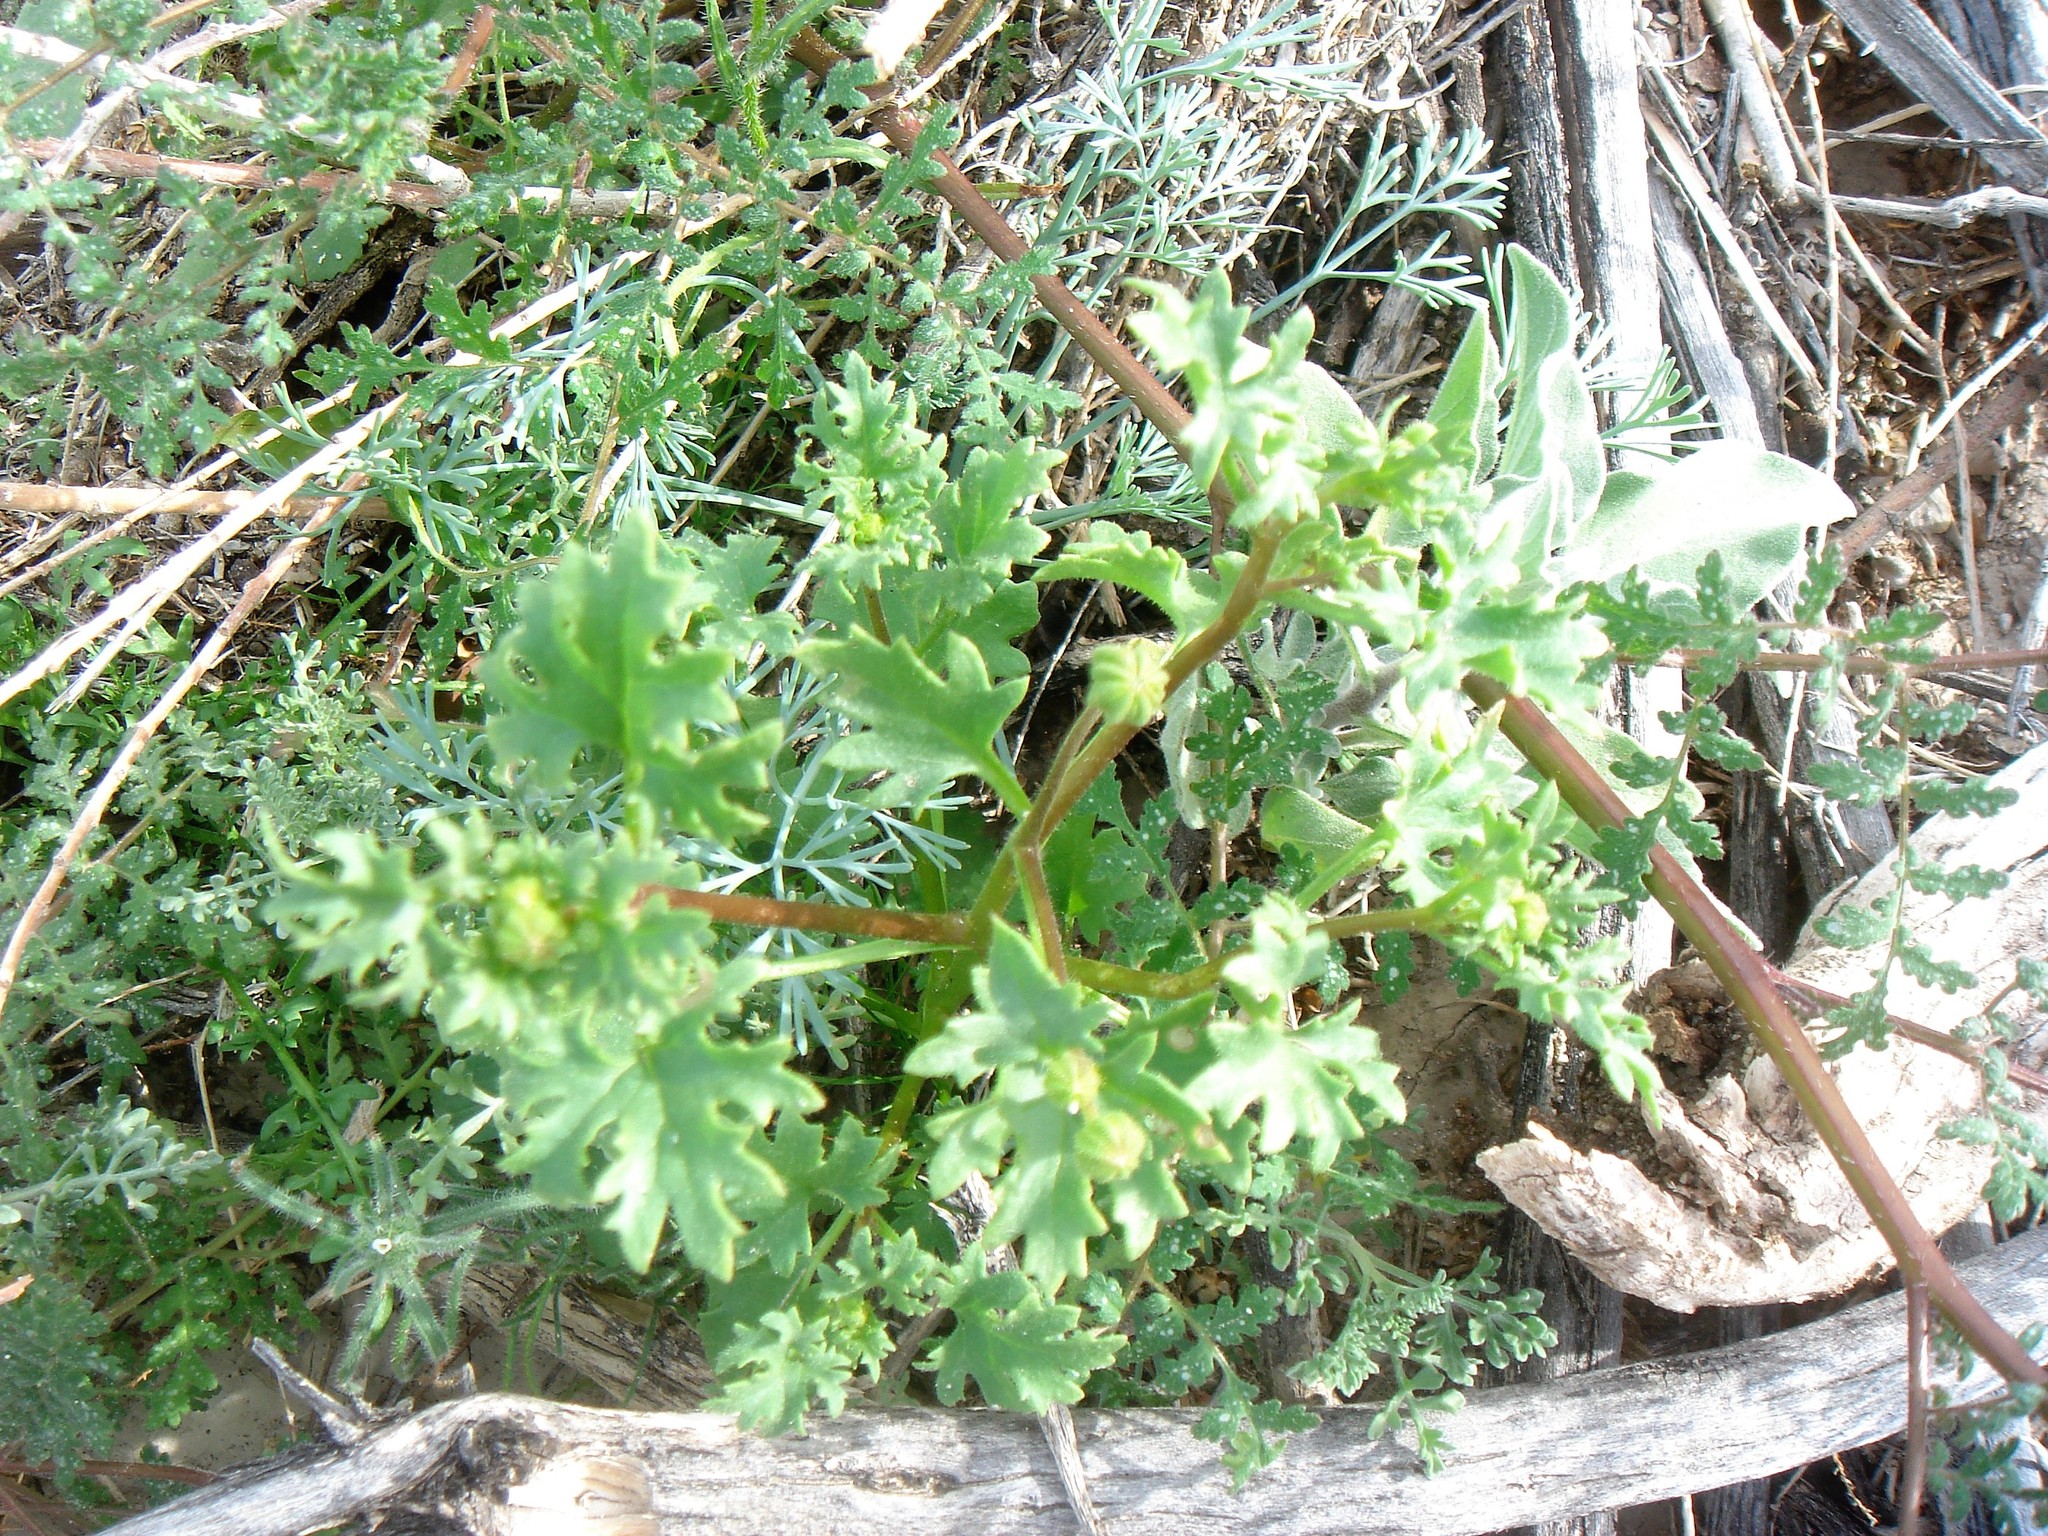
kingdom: Plantae
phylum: Tracheophyta
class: Magnoliopsida
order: Asterales
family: Asteraceae
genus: Laphamia
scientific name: Laphamia emoryi
